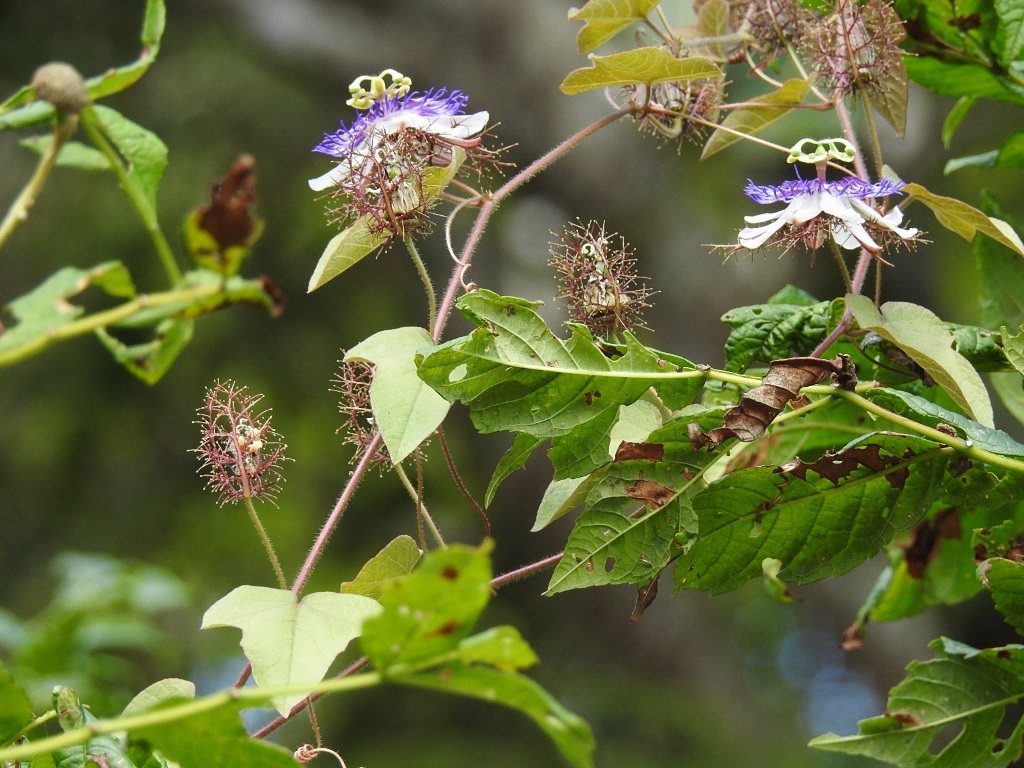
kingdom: Plantae
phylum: Tracheophyta
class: Magnoliopsida
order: Malpighiales
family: Passifloraceae
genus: Passiflora
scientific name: Passiflora foetida
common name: Fetid passionflower
